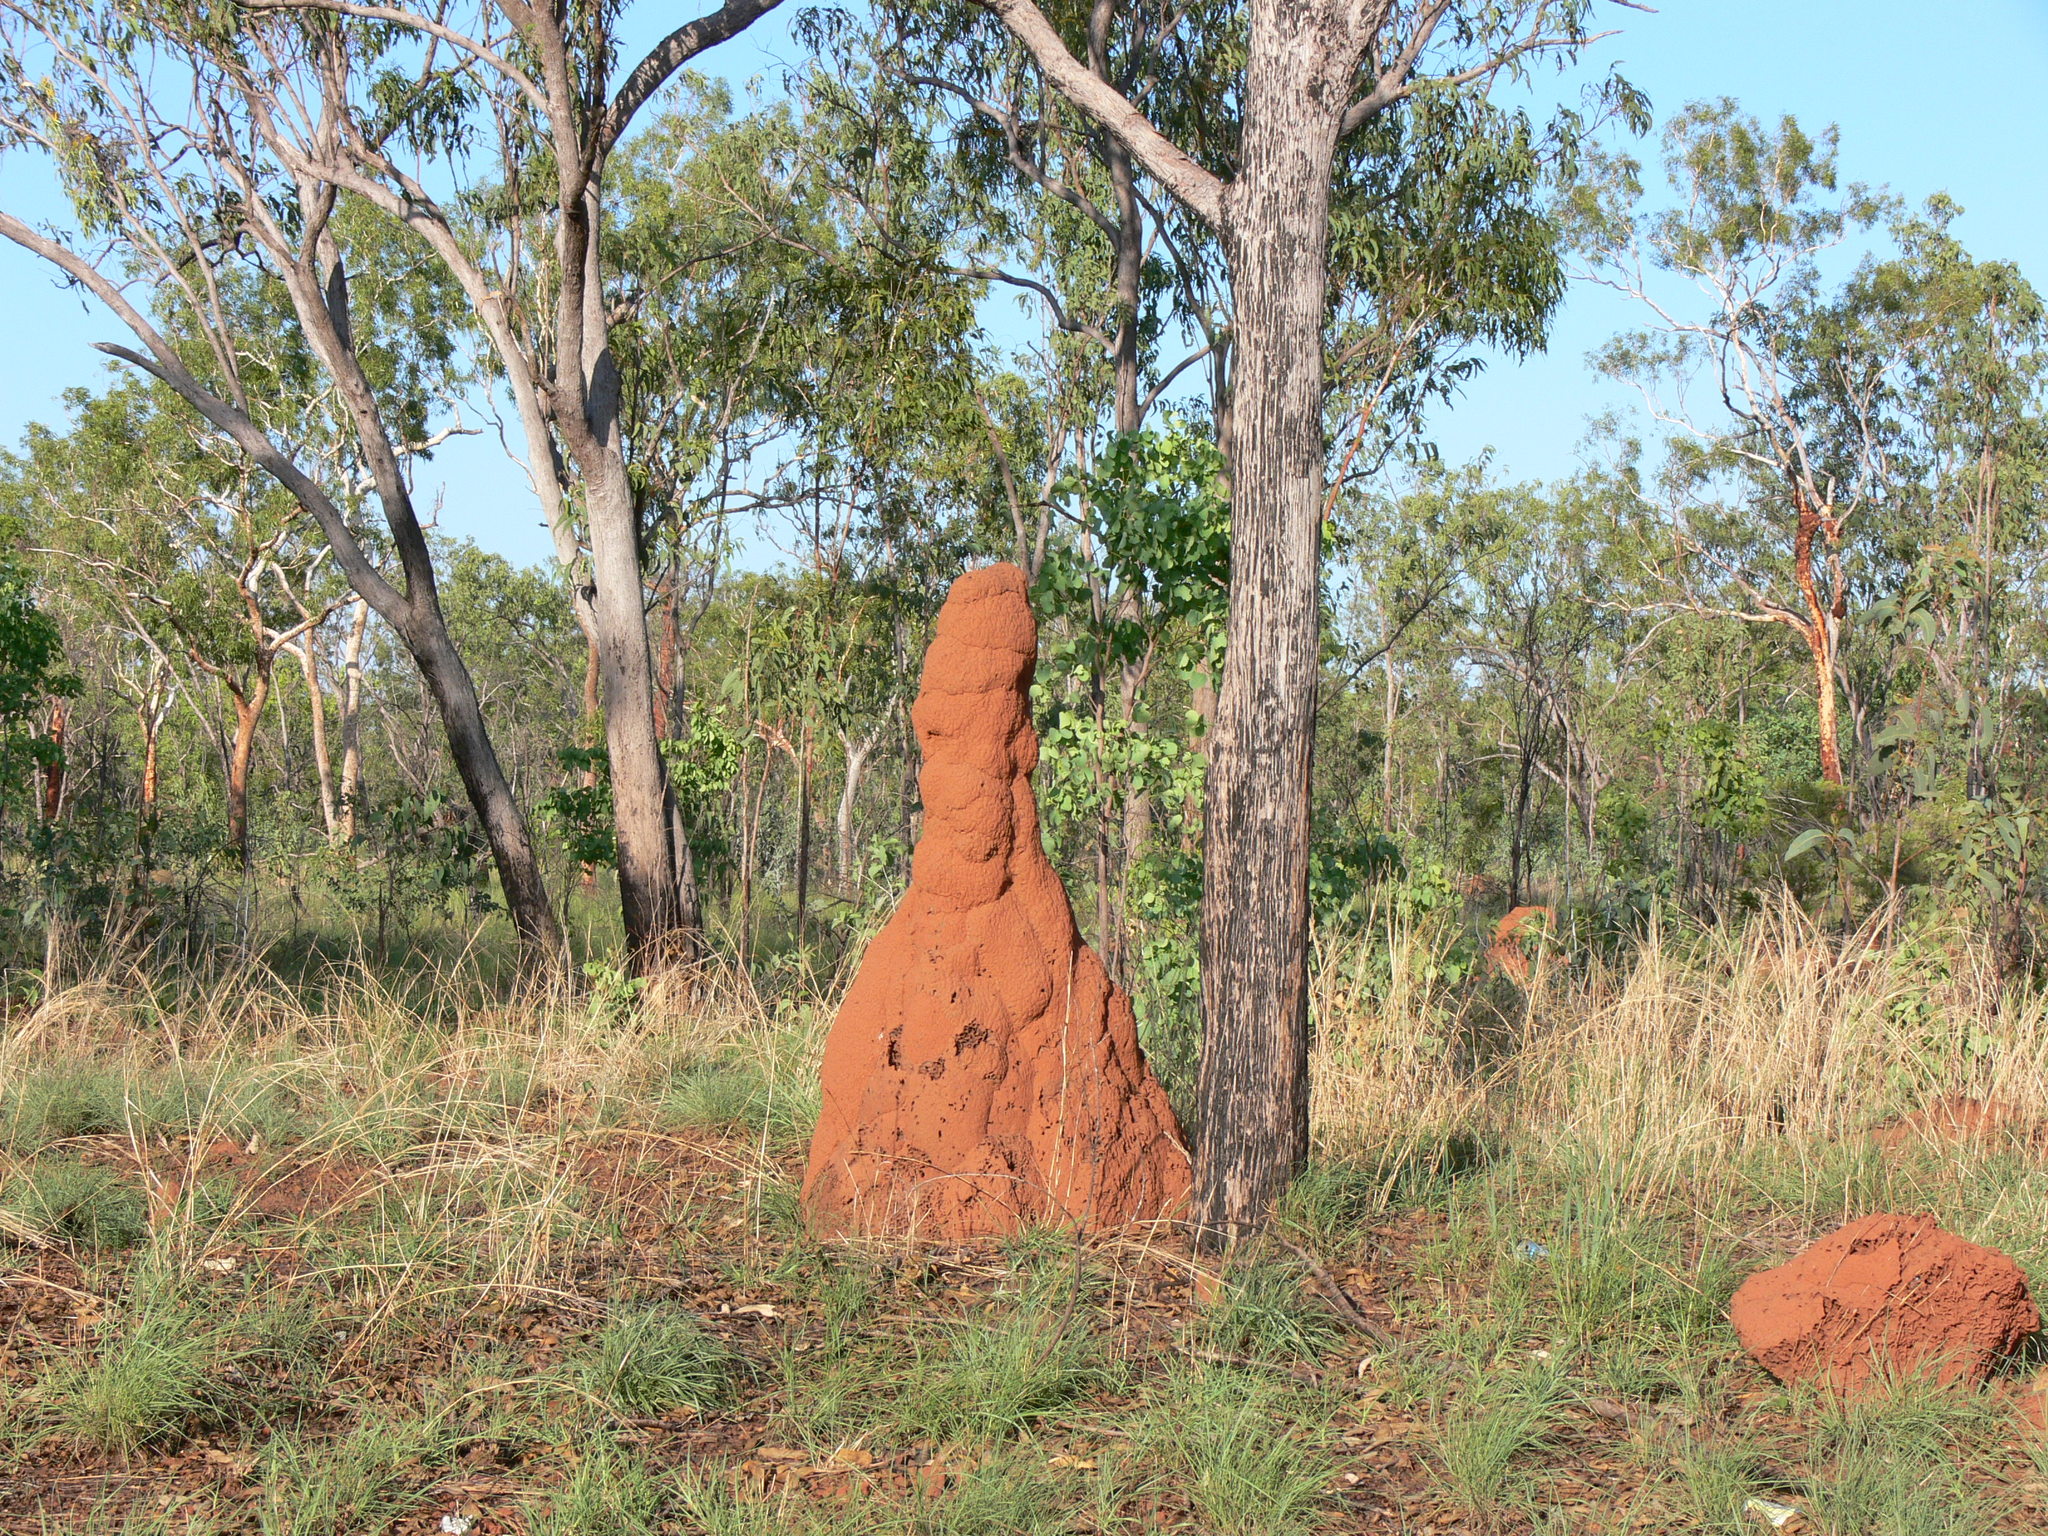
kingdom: Animalia
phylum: Arthropoda
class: Insecta
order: Blattodea
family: Termitidae
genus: Nasutitermes
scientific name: Nasutitermes triodiae
